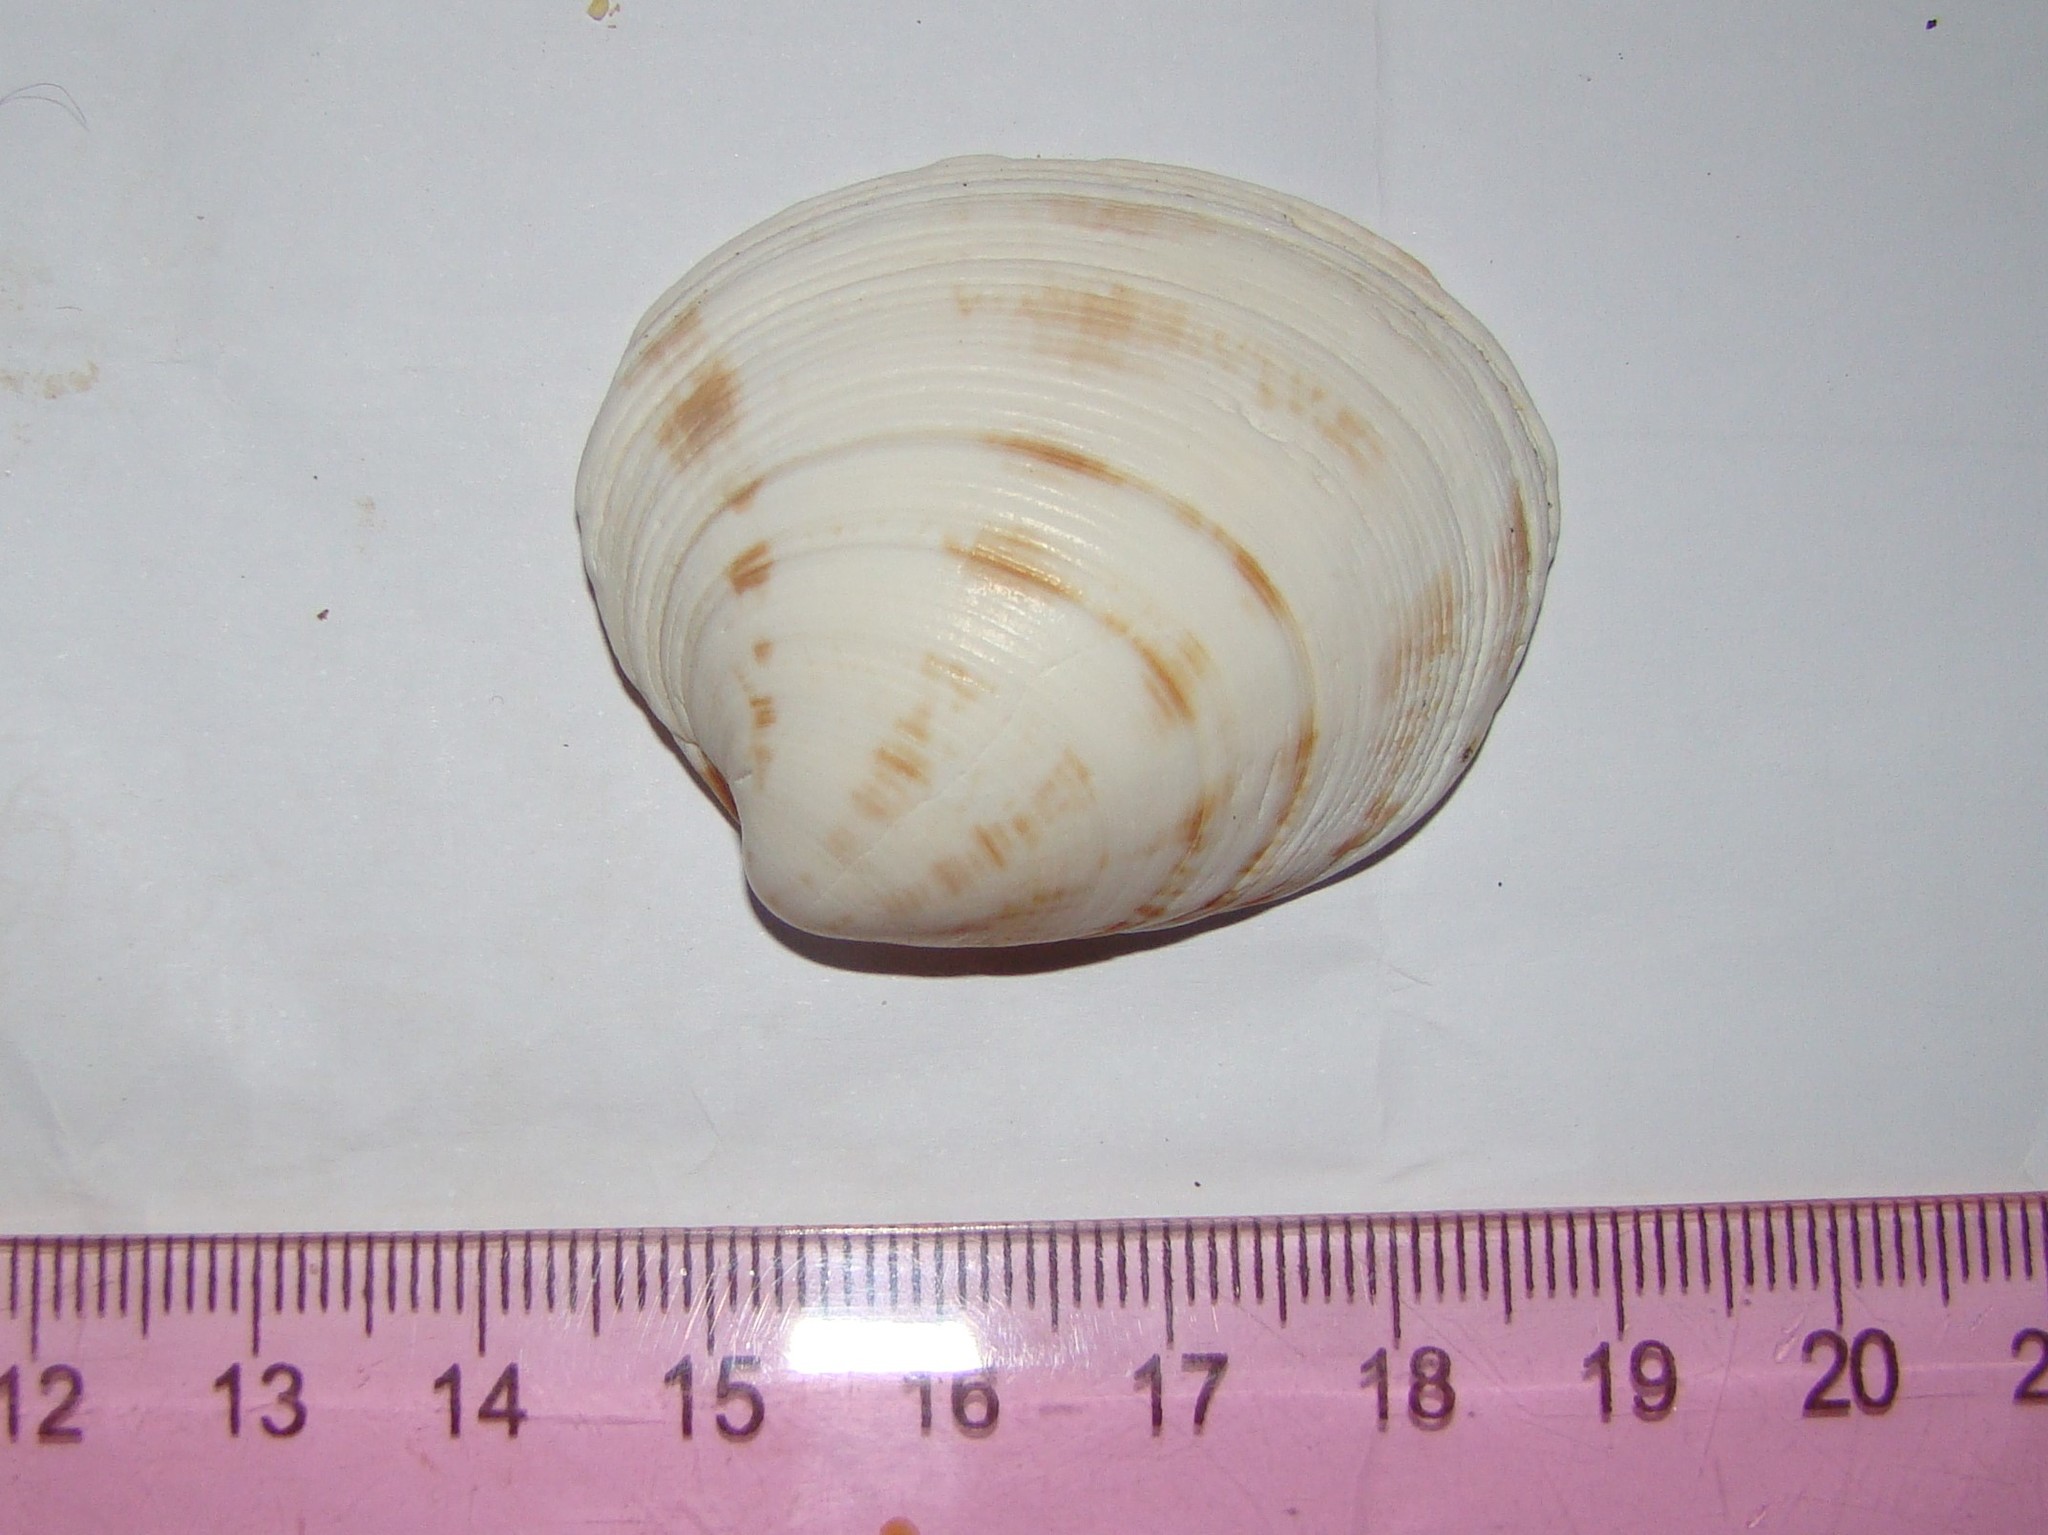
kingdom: Animalia
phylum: Mollusca
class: Bivalvia
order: Venerida
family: Veneridae
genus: Dosina
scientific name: Dosina mactracea
